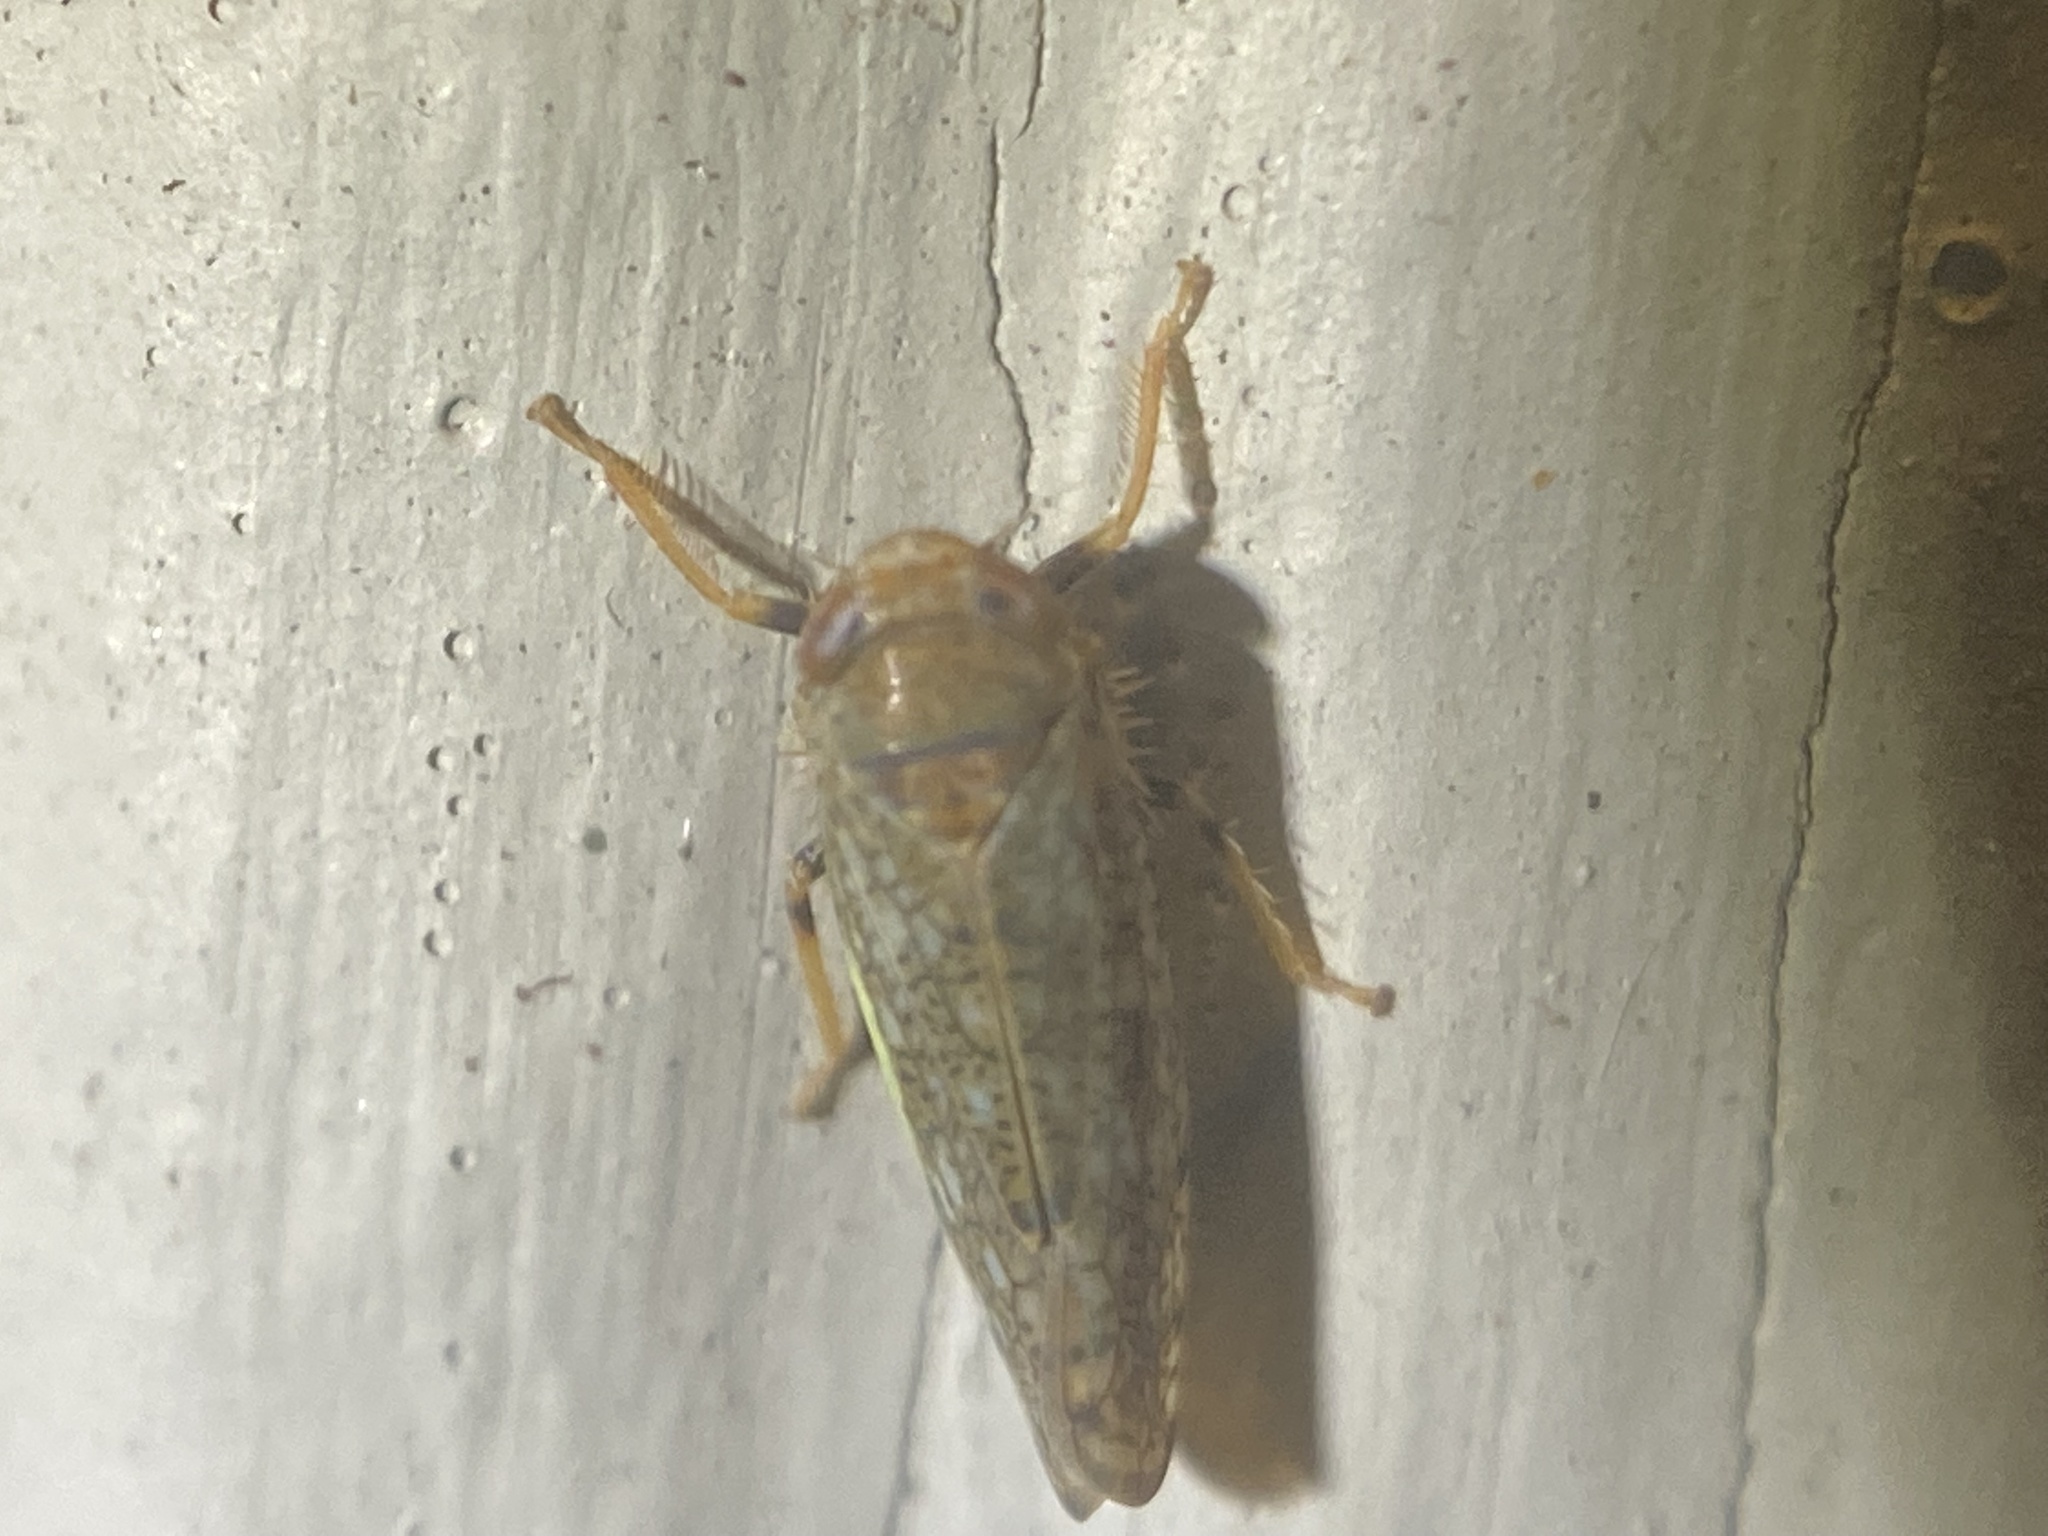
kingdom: Animalia
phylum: Arthropoda
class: Insecta
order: Hemiptera
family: Cicadellidae
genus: Orientus
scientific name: Orientus ishidae
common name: Japanese leafhopper
